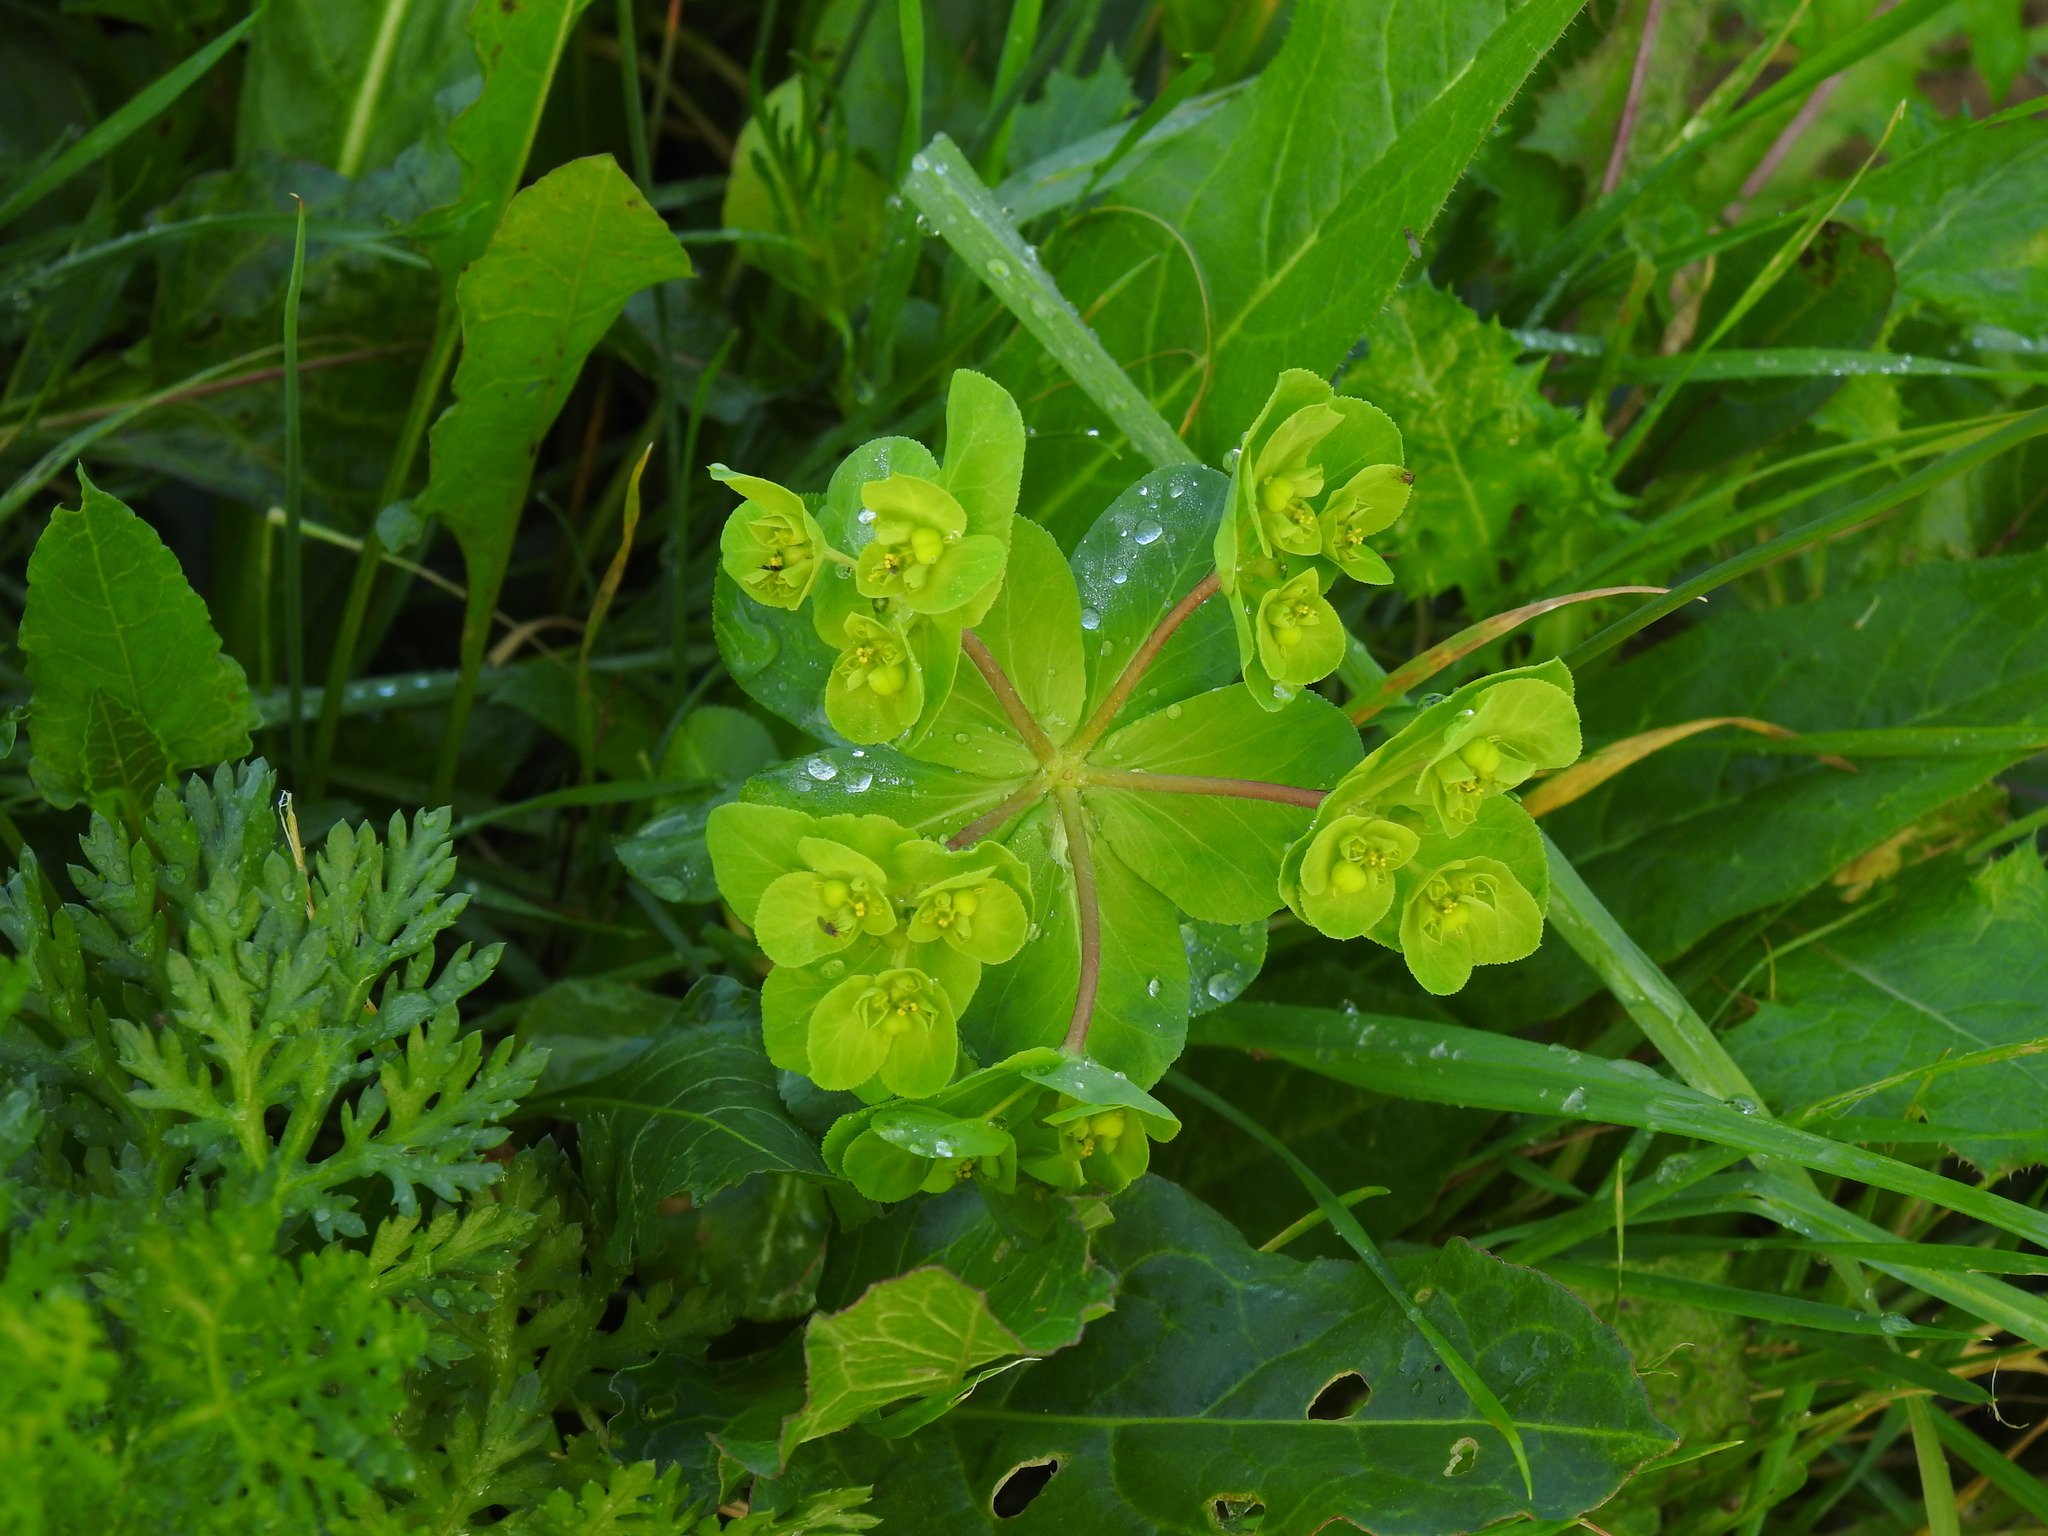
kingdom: Plantae
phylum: Tracheophyta
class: Magnoliopsida
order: Malpighiales
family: Euphorbiaceae
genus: Euphorbia
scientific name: Euphorbia helioscopia
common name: Sun spurge
